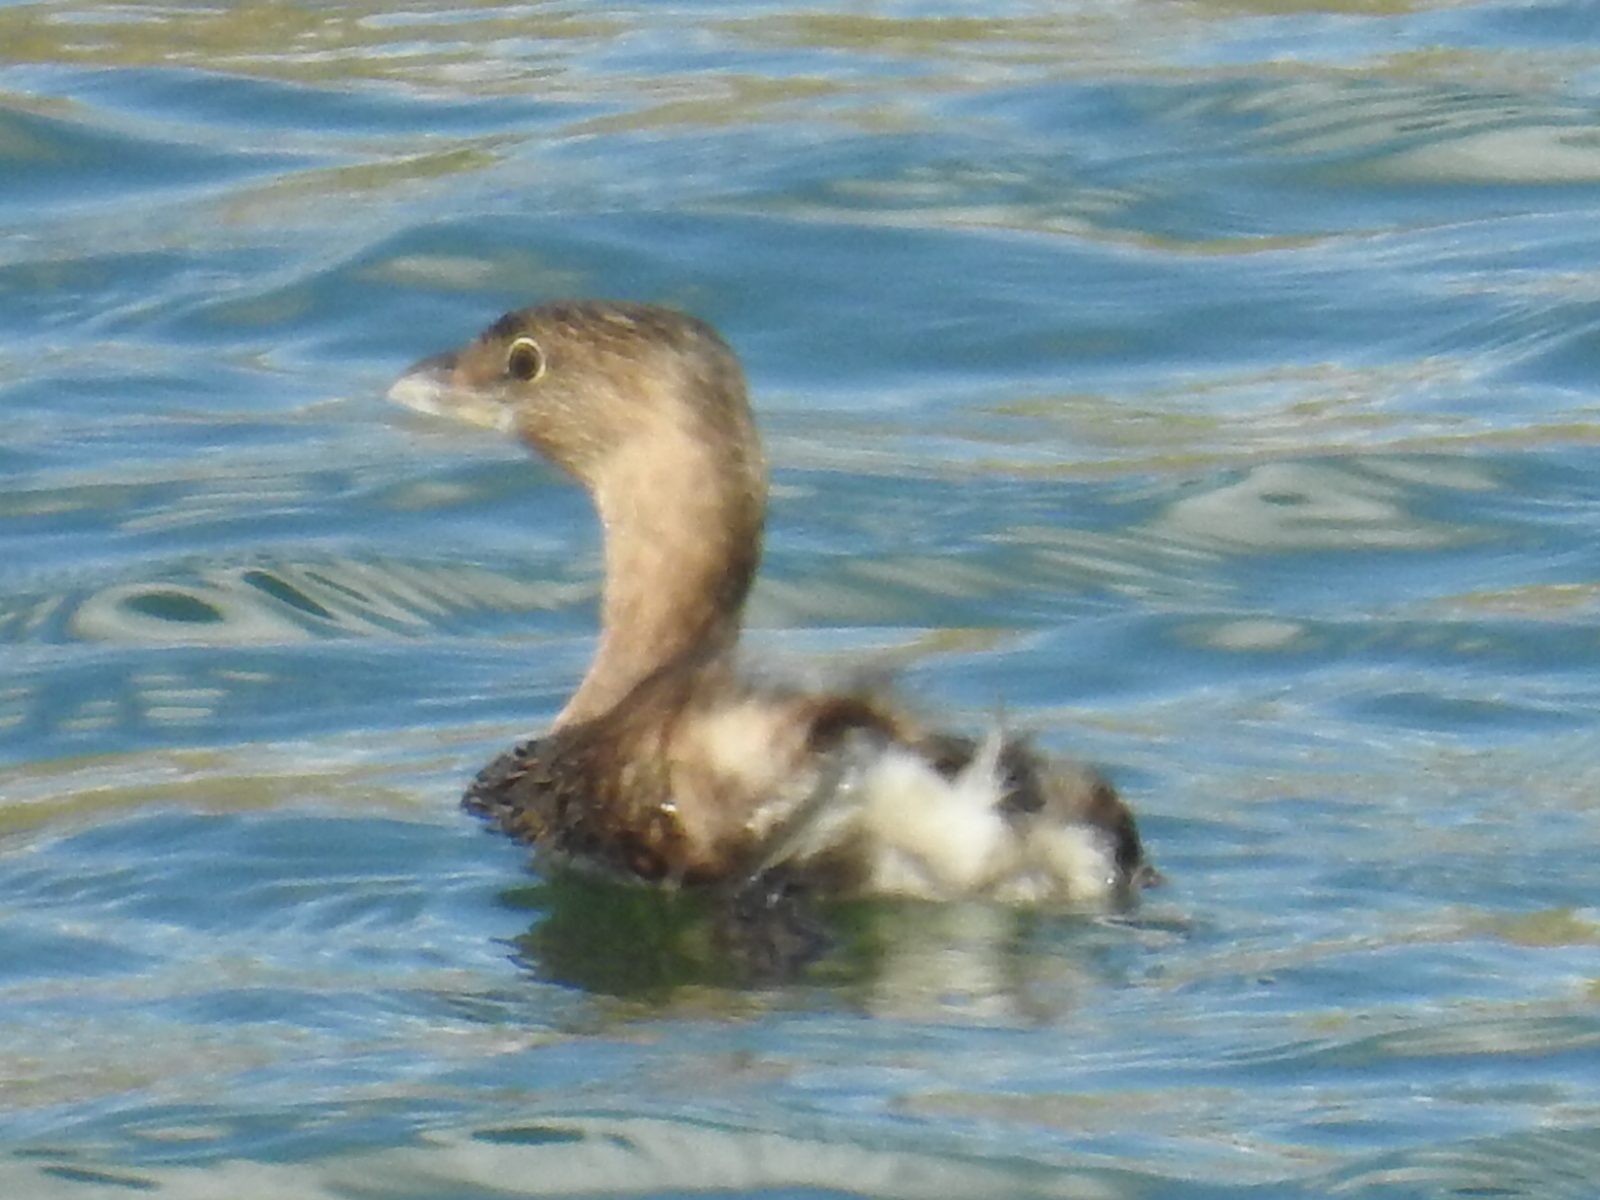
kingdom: Animalia
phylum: Chordata
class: Aves
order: Podicipediformes
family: Podicipedidae
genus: Podilymbus
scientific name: Podilymbus podiceps
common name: Pied-billed grebe
